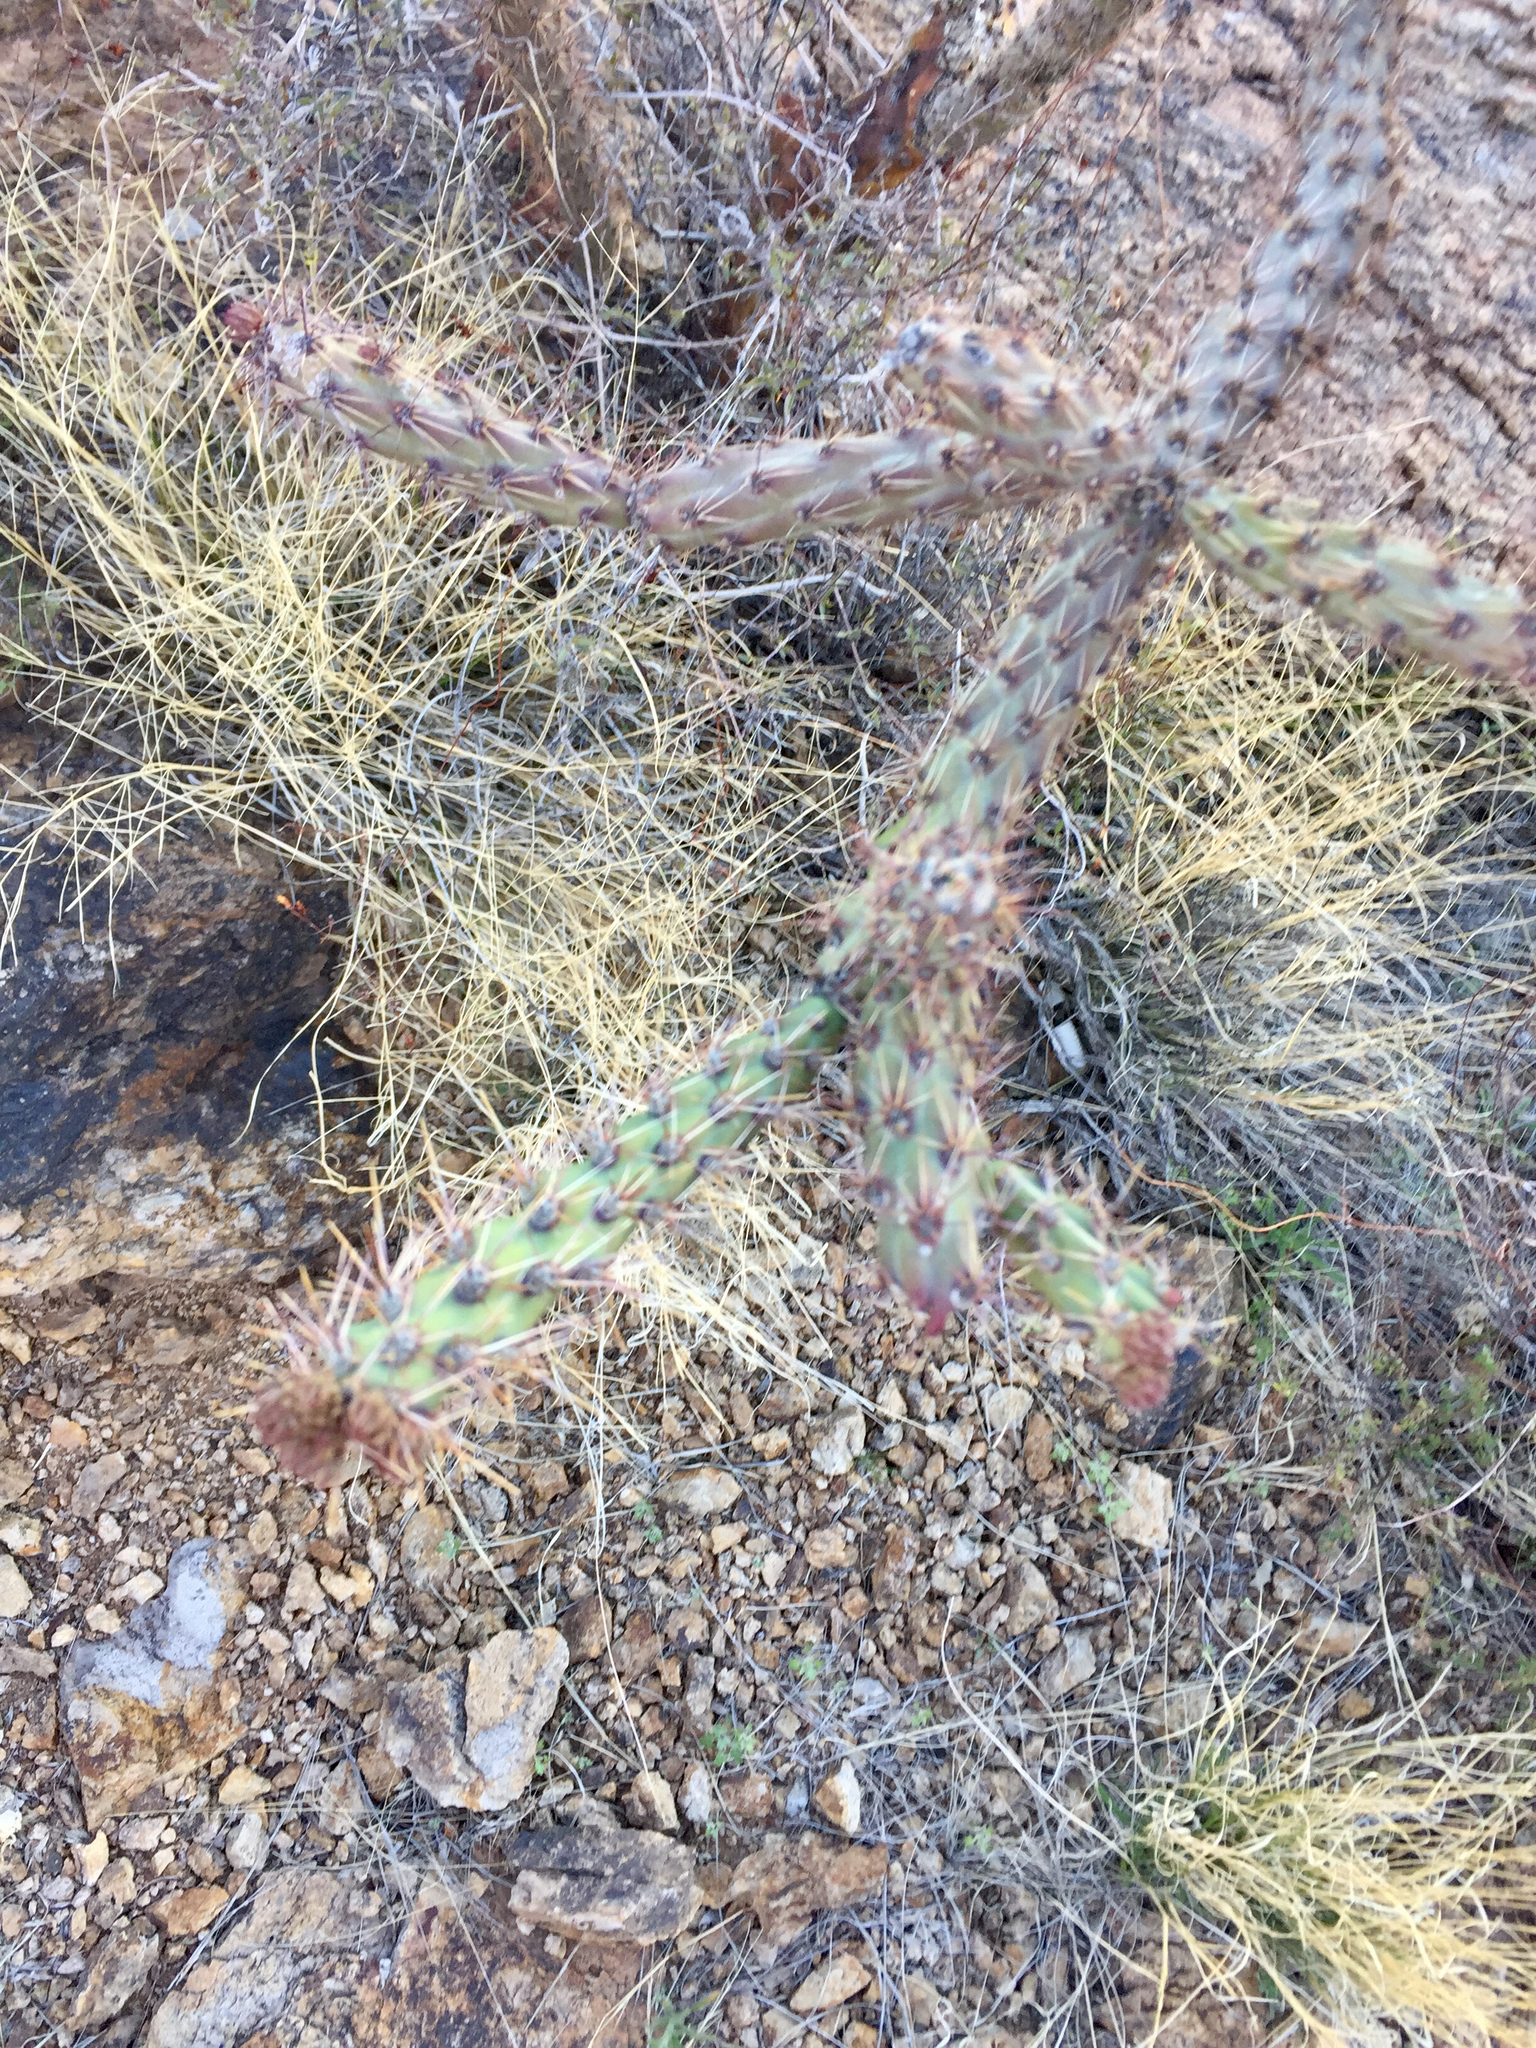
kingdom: Plantae
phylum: Tracheophyta
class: Magnoliopsida
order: Caryophyllales
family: Cactaceae
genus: Cylindropuntia
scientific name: Cylindropuntia thurberi
